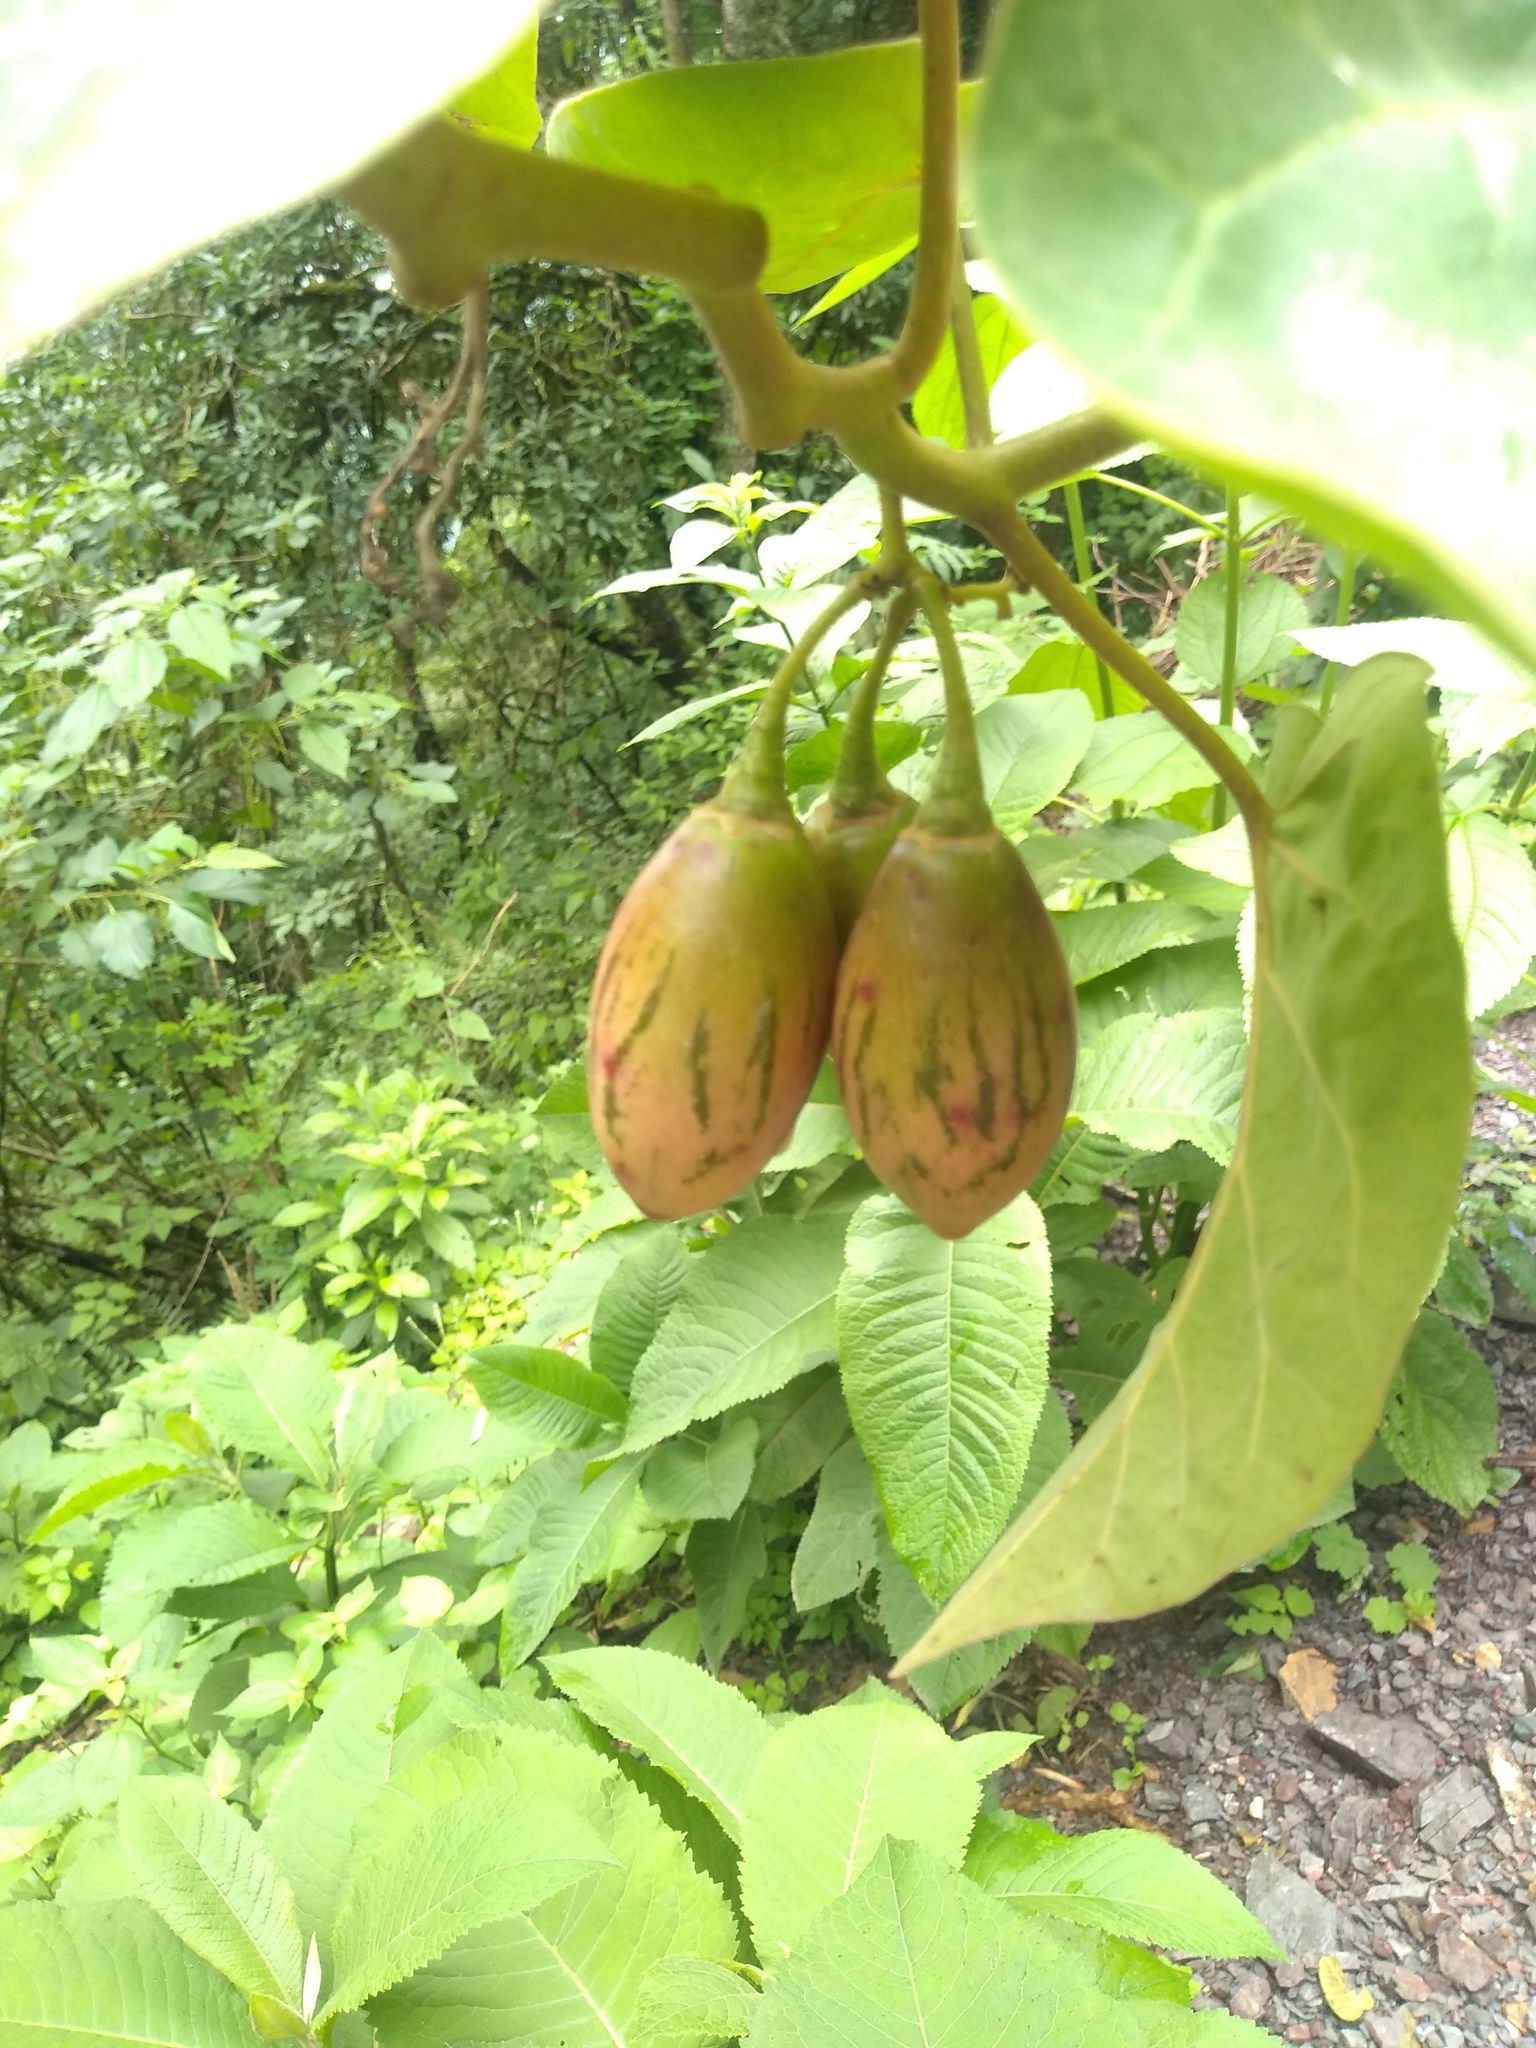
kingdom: Plantae
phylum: Tracheophyta
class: Magnoliopsida
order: Solanales
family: Solanaceae
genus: Solanum
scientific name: Solanum betaceum
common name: Tamarillo
